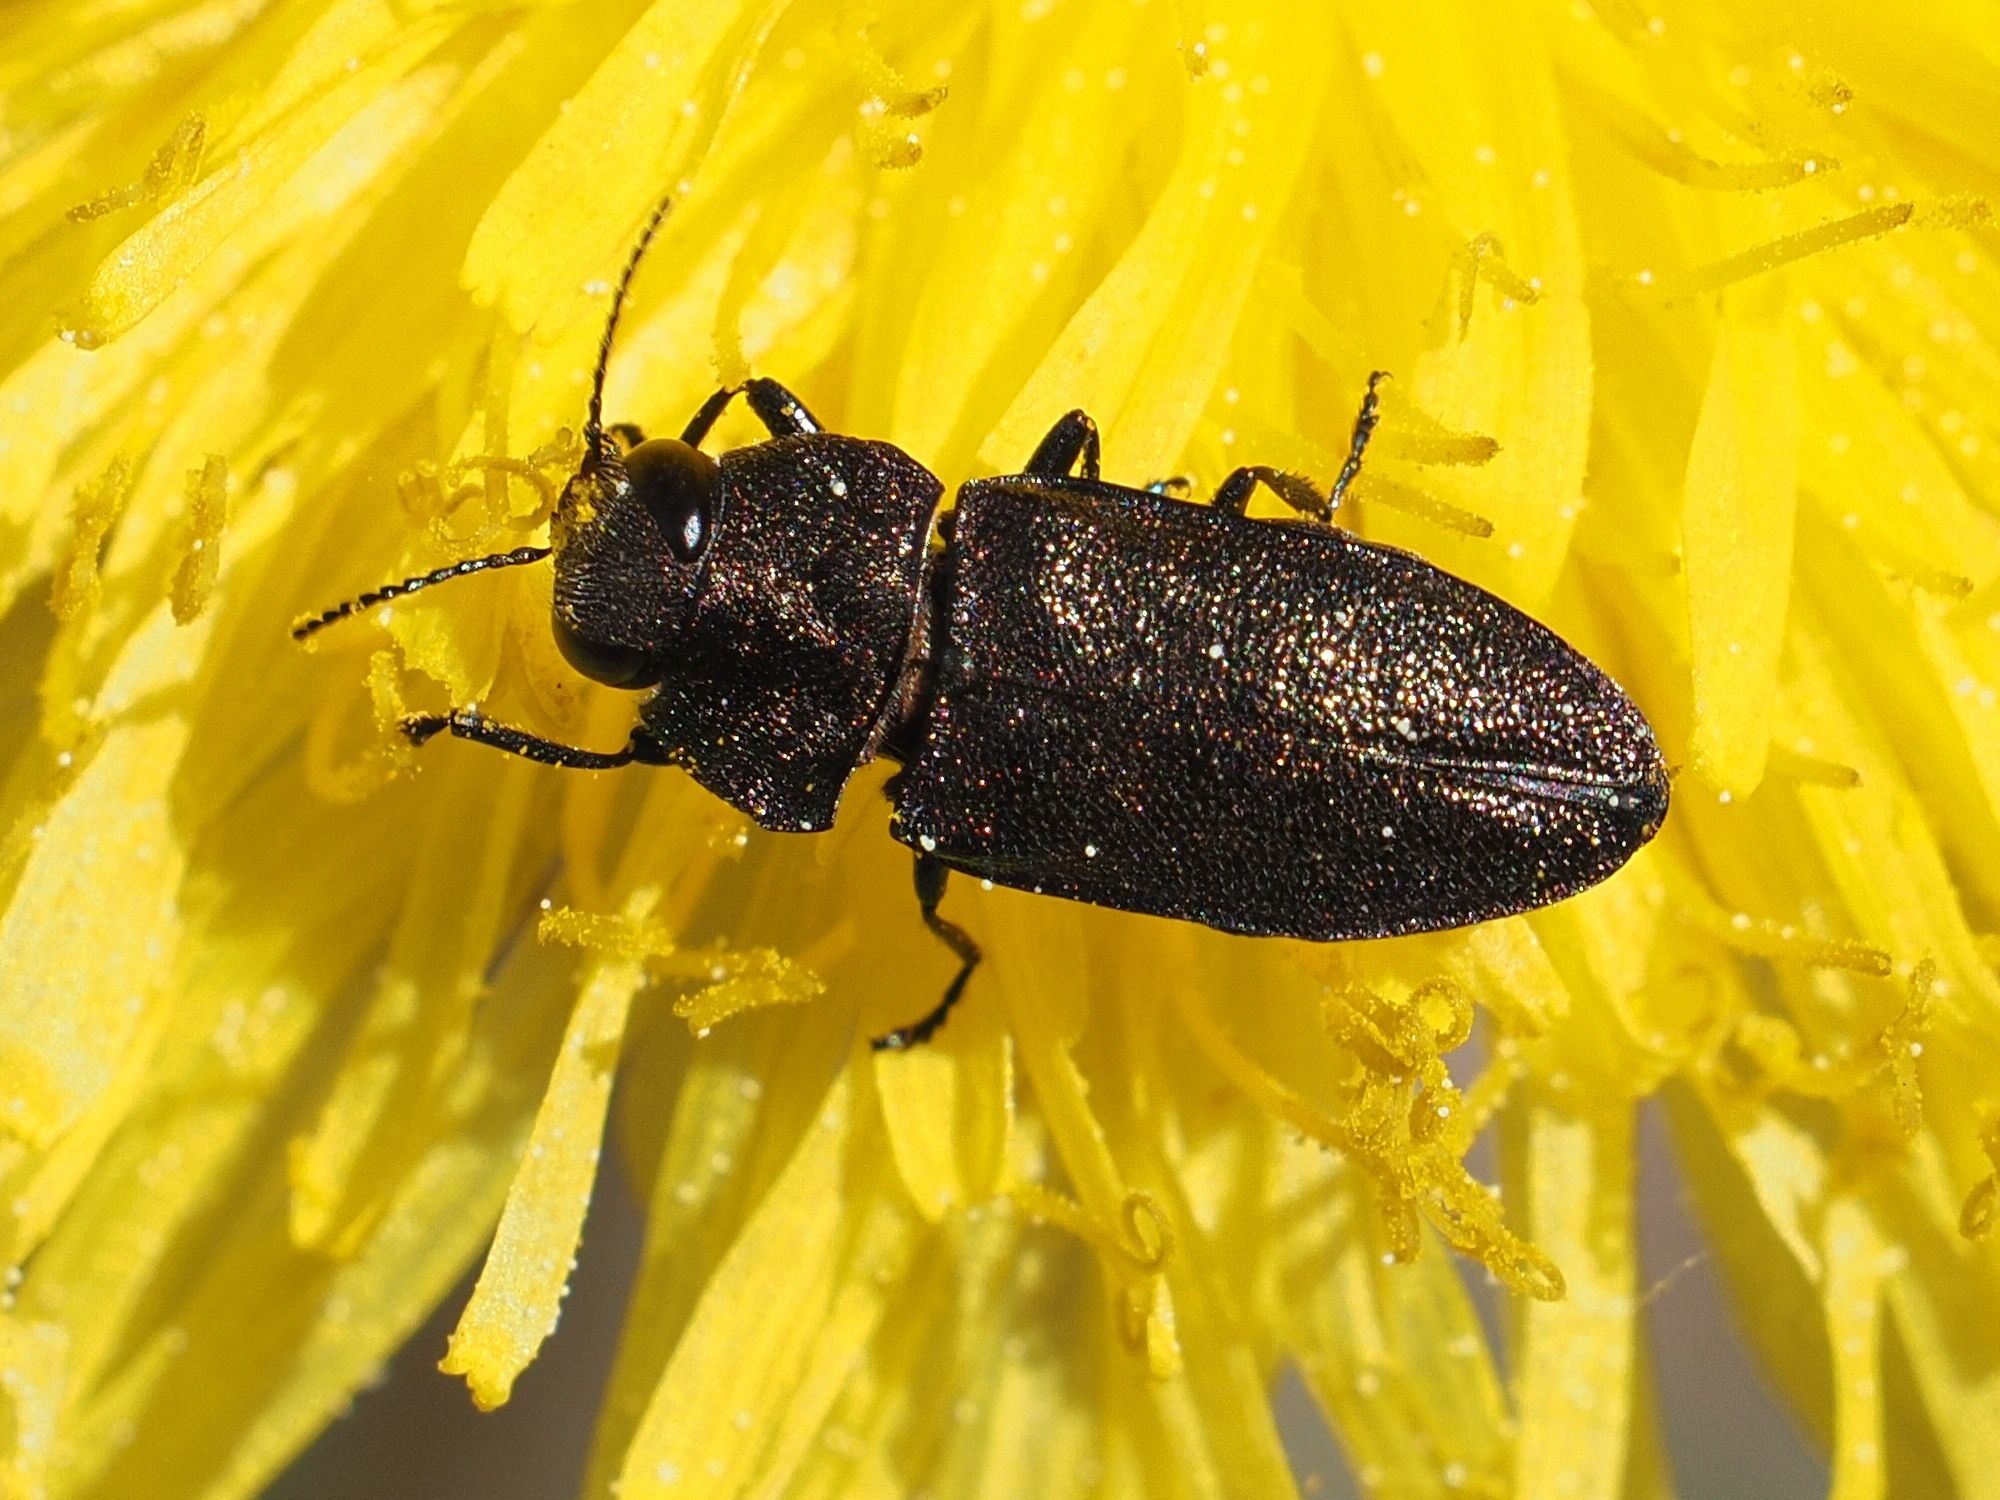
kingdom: Animalia
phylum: Arthropoda
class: Insecta
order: Coleoptera
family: Buprestidae
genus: Anthaxia
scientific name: Anthaxia morio
